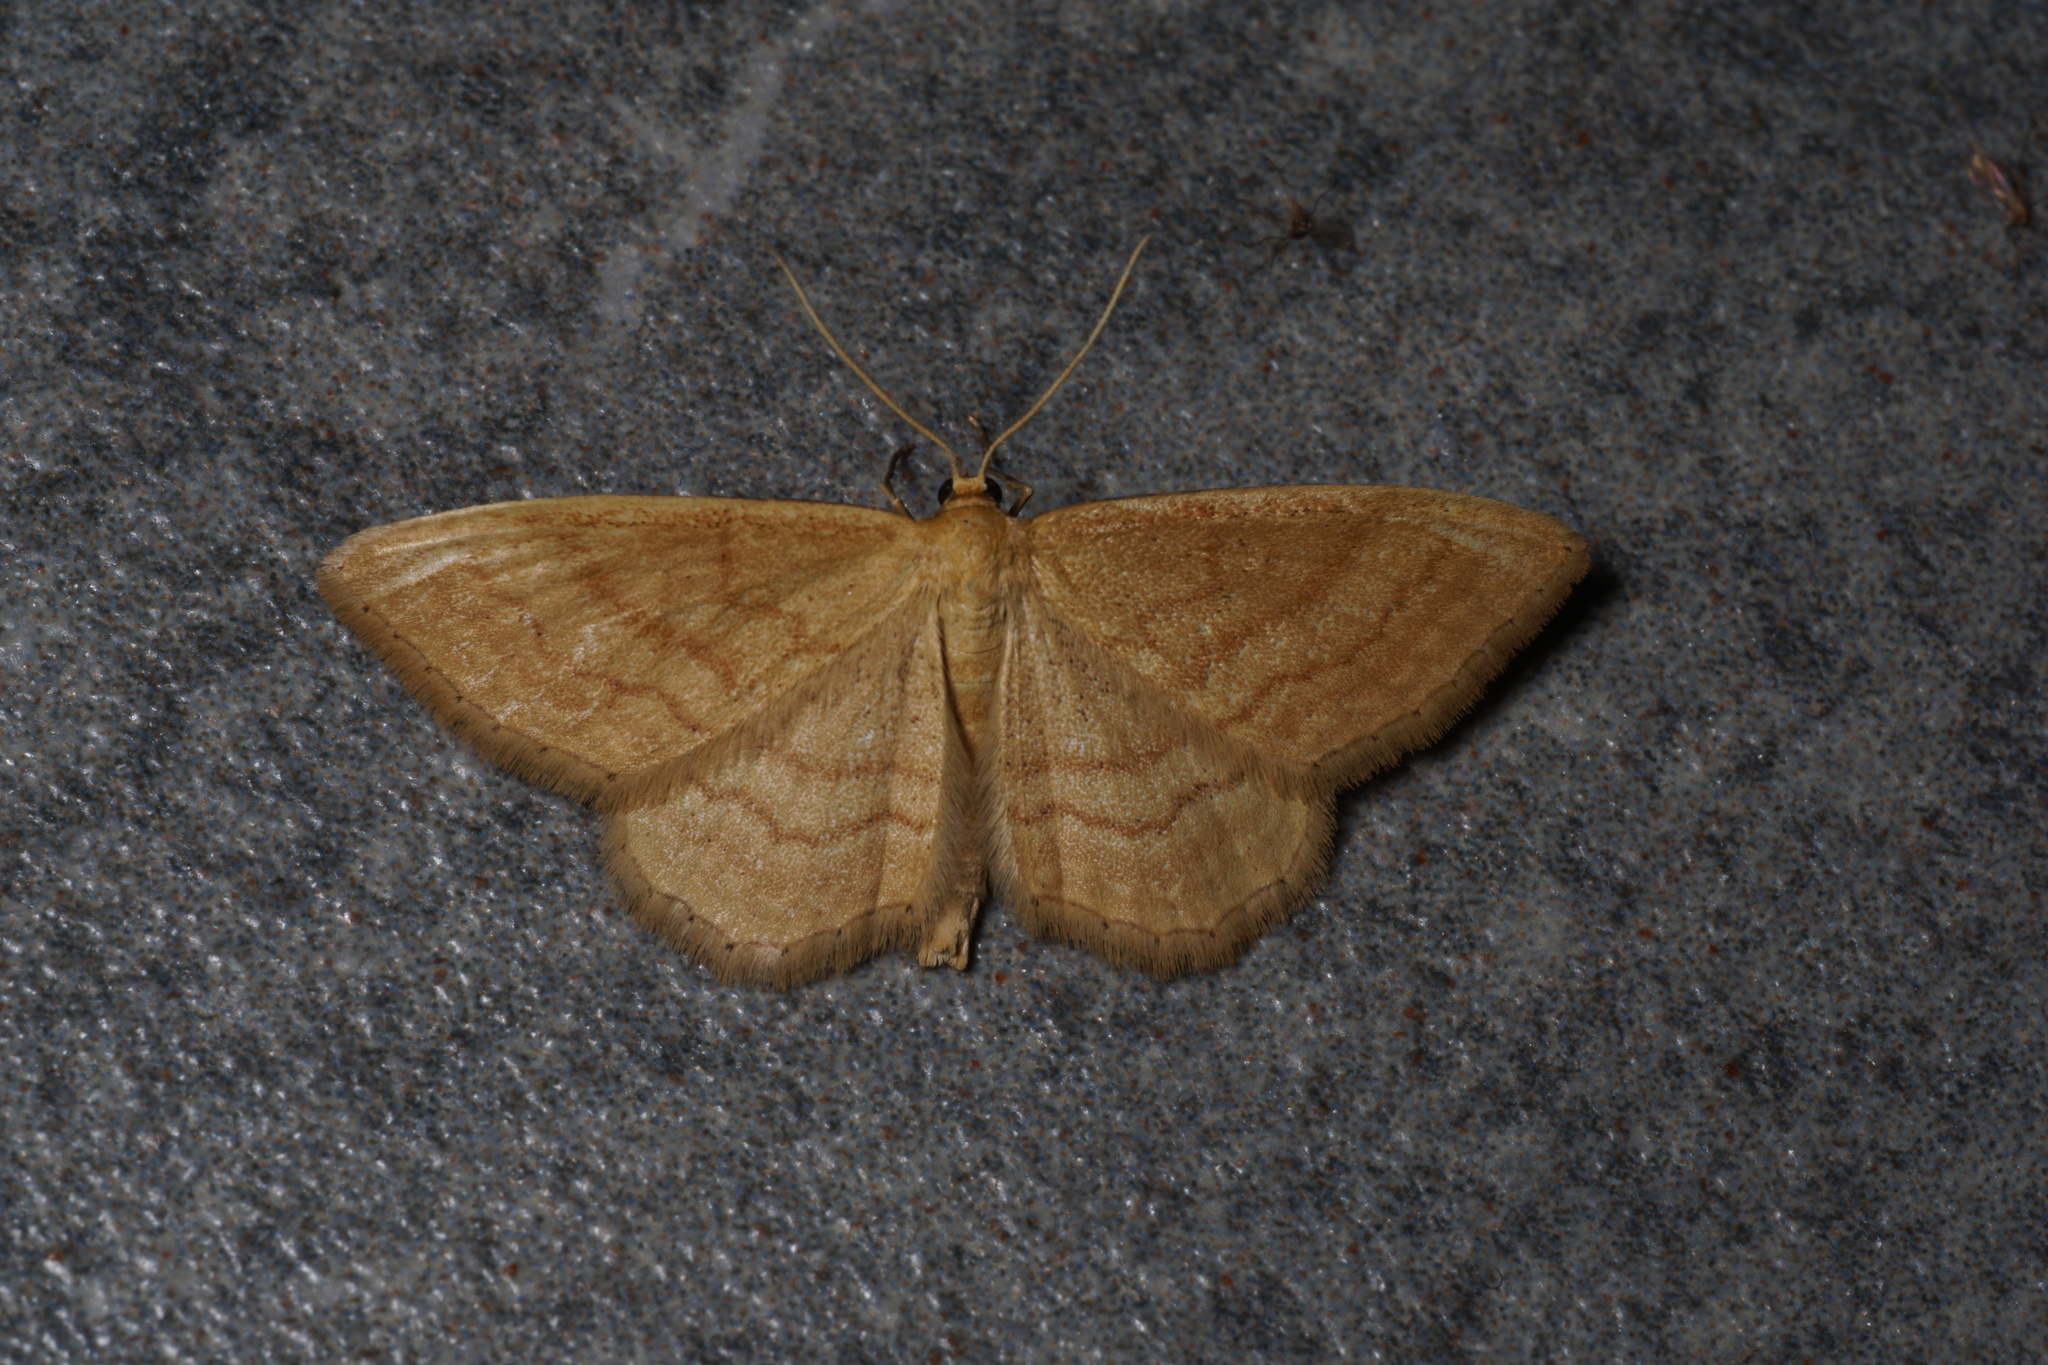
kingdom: Animalia
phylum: Arthropoda
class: Insecta
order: Lepidoptera
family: Geometridae
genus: Idaea
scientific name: Idaea ochrata
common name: Bright wave
